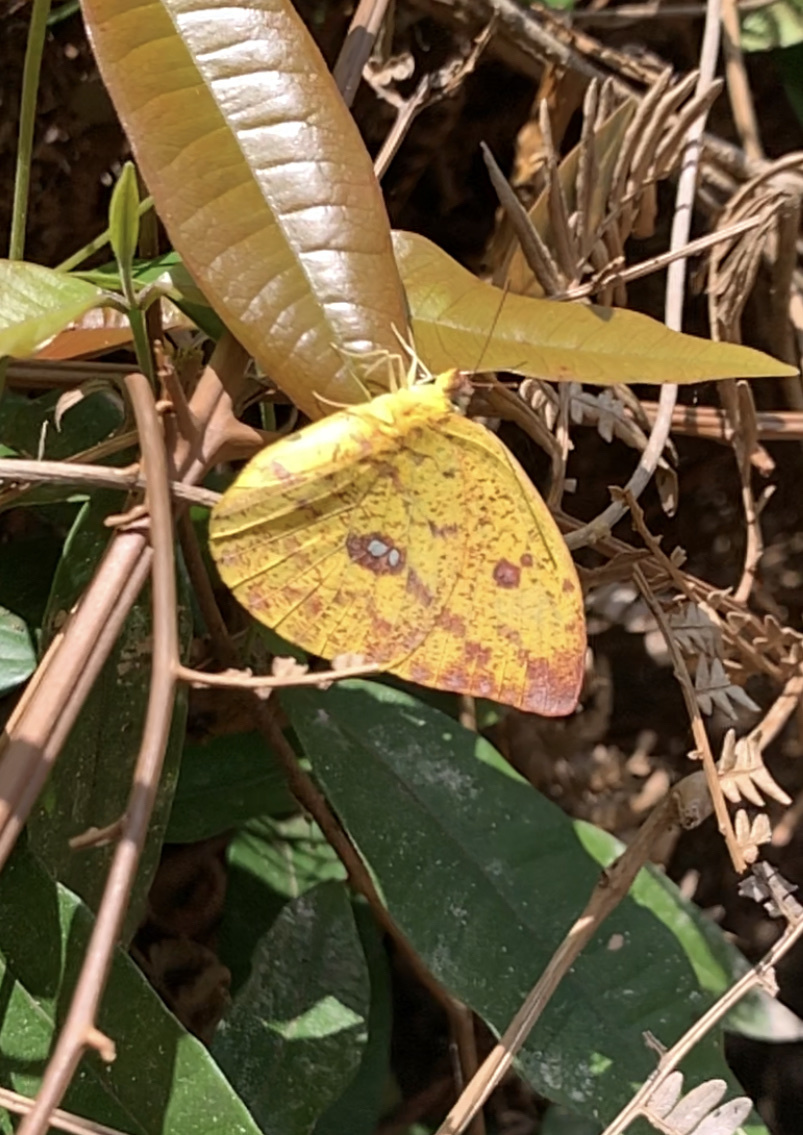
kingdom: Animalia
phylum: Arthropoda
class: Insecta
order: Lepidoptera
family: Pieridae
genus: Phoebis
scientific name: Phoebis argante
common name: Apricot sulphur
